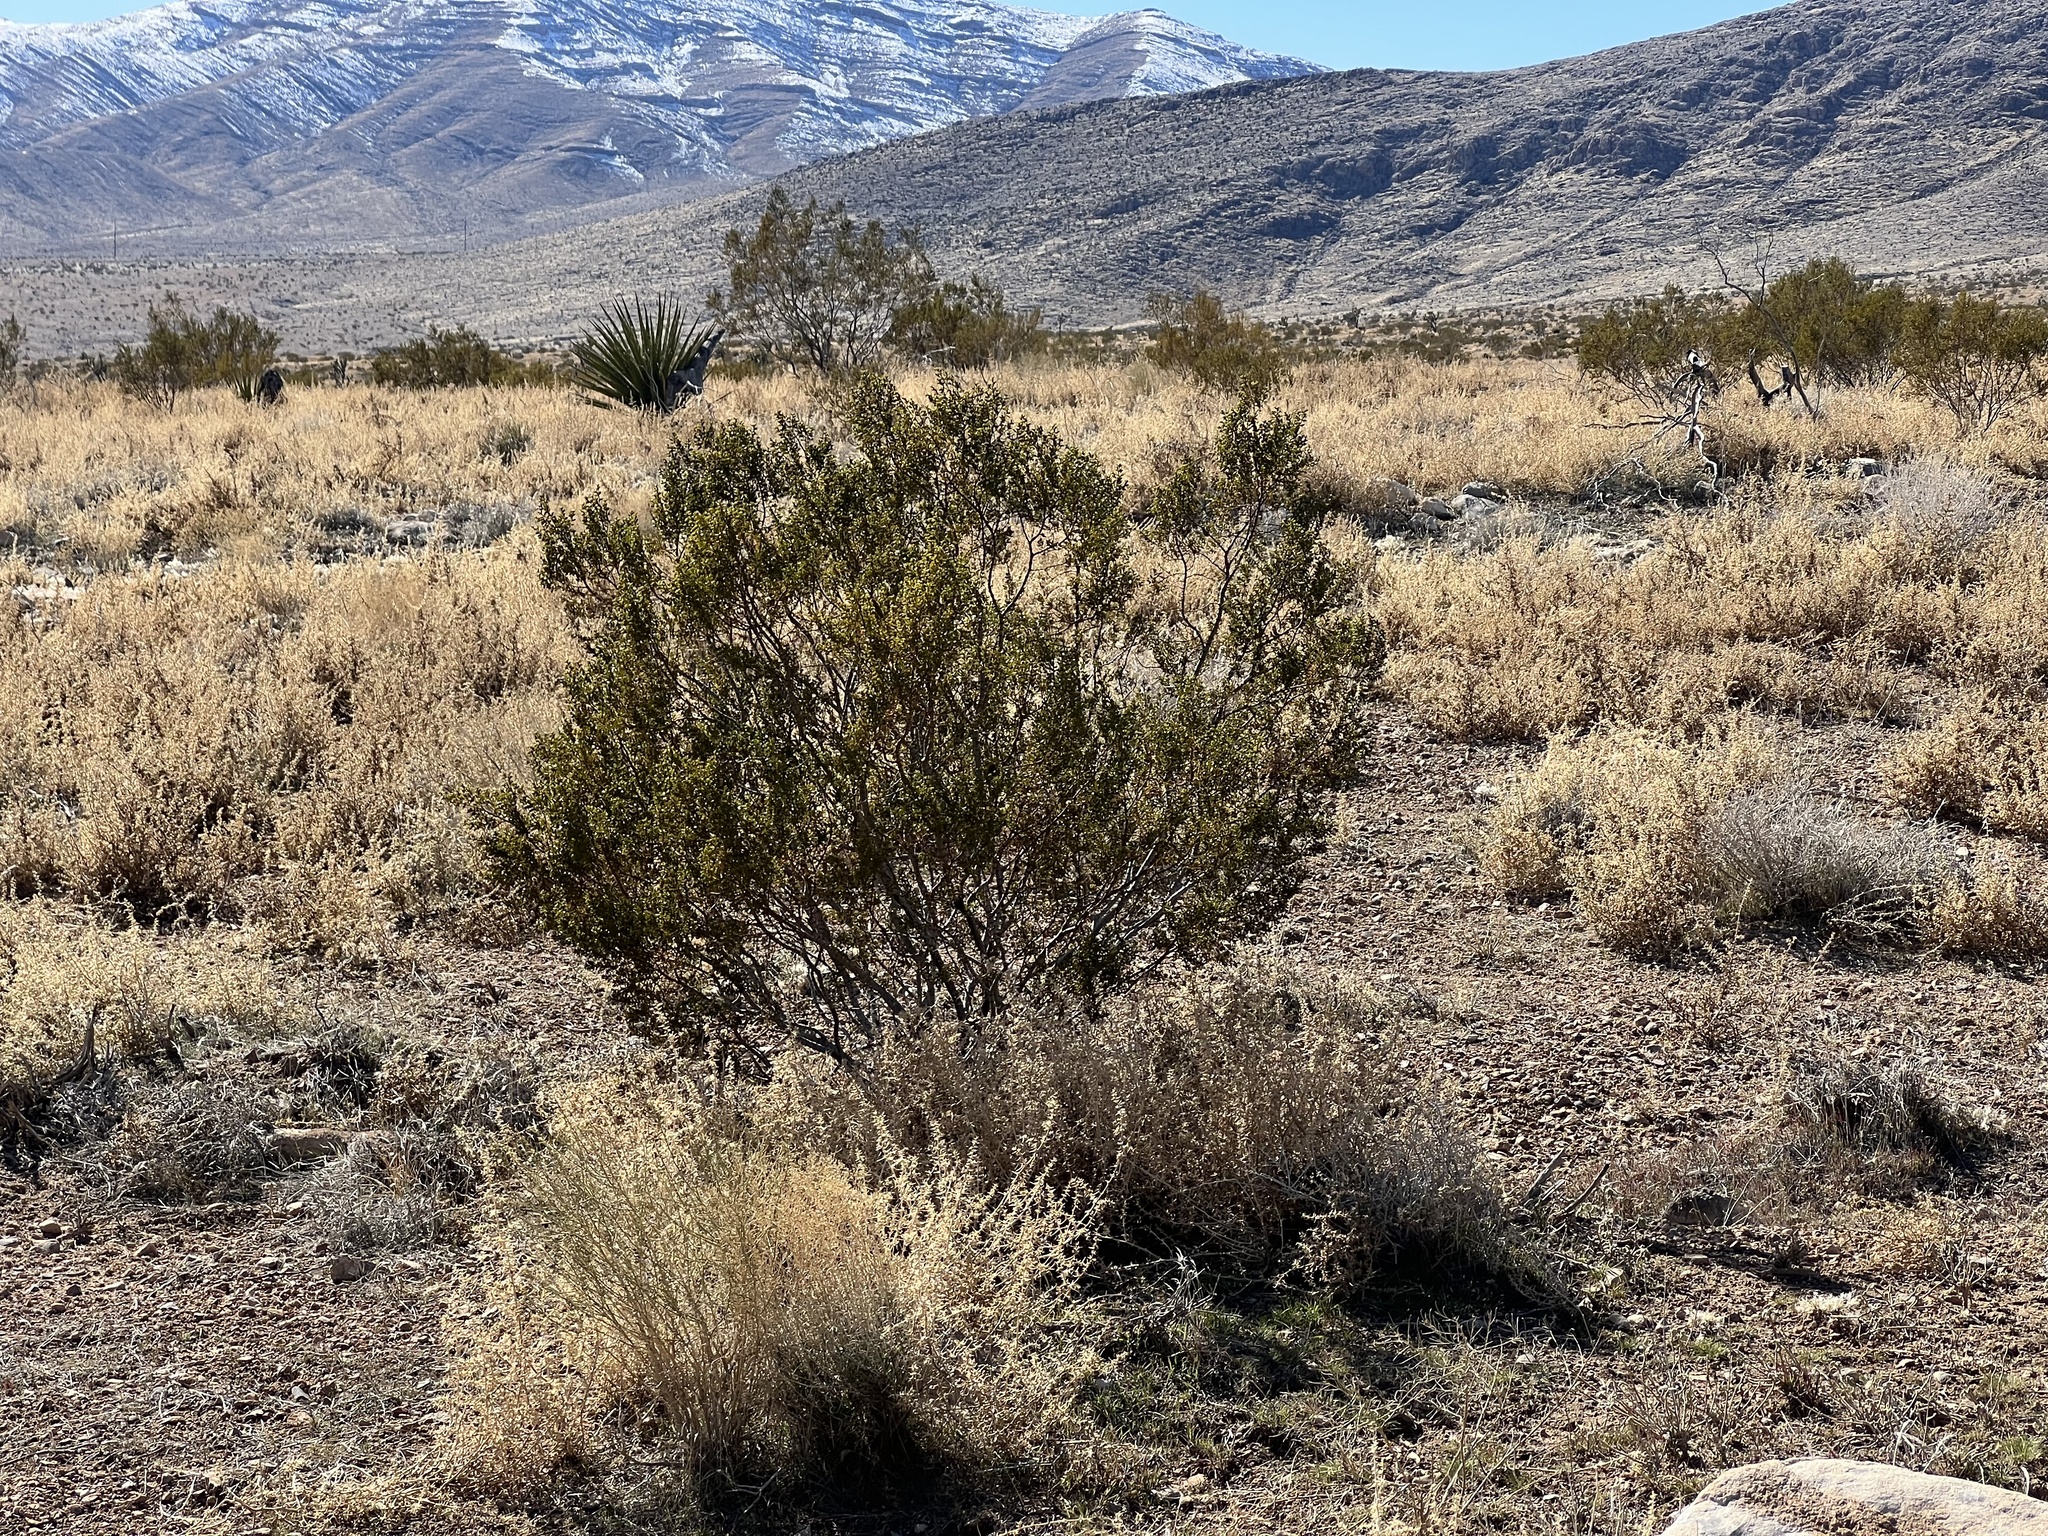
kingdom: Plantae
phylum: Tracheophyta
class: Magnoliopsida
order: Zygophyllales
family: Zygophyllaceae
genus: Larrea
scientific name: Larrea tridentata
